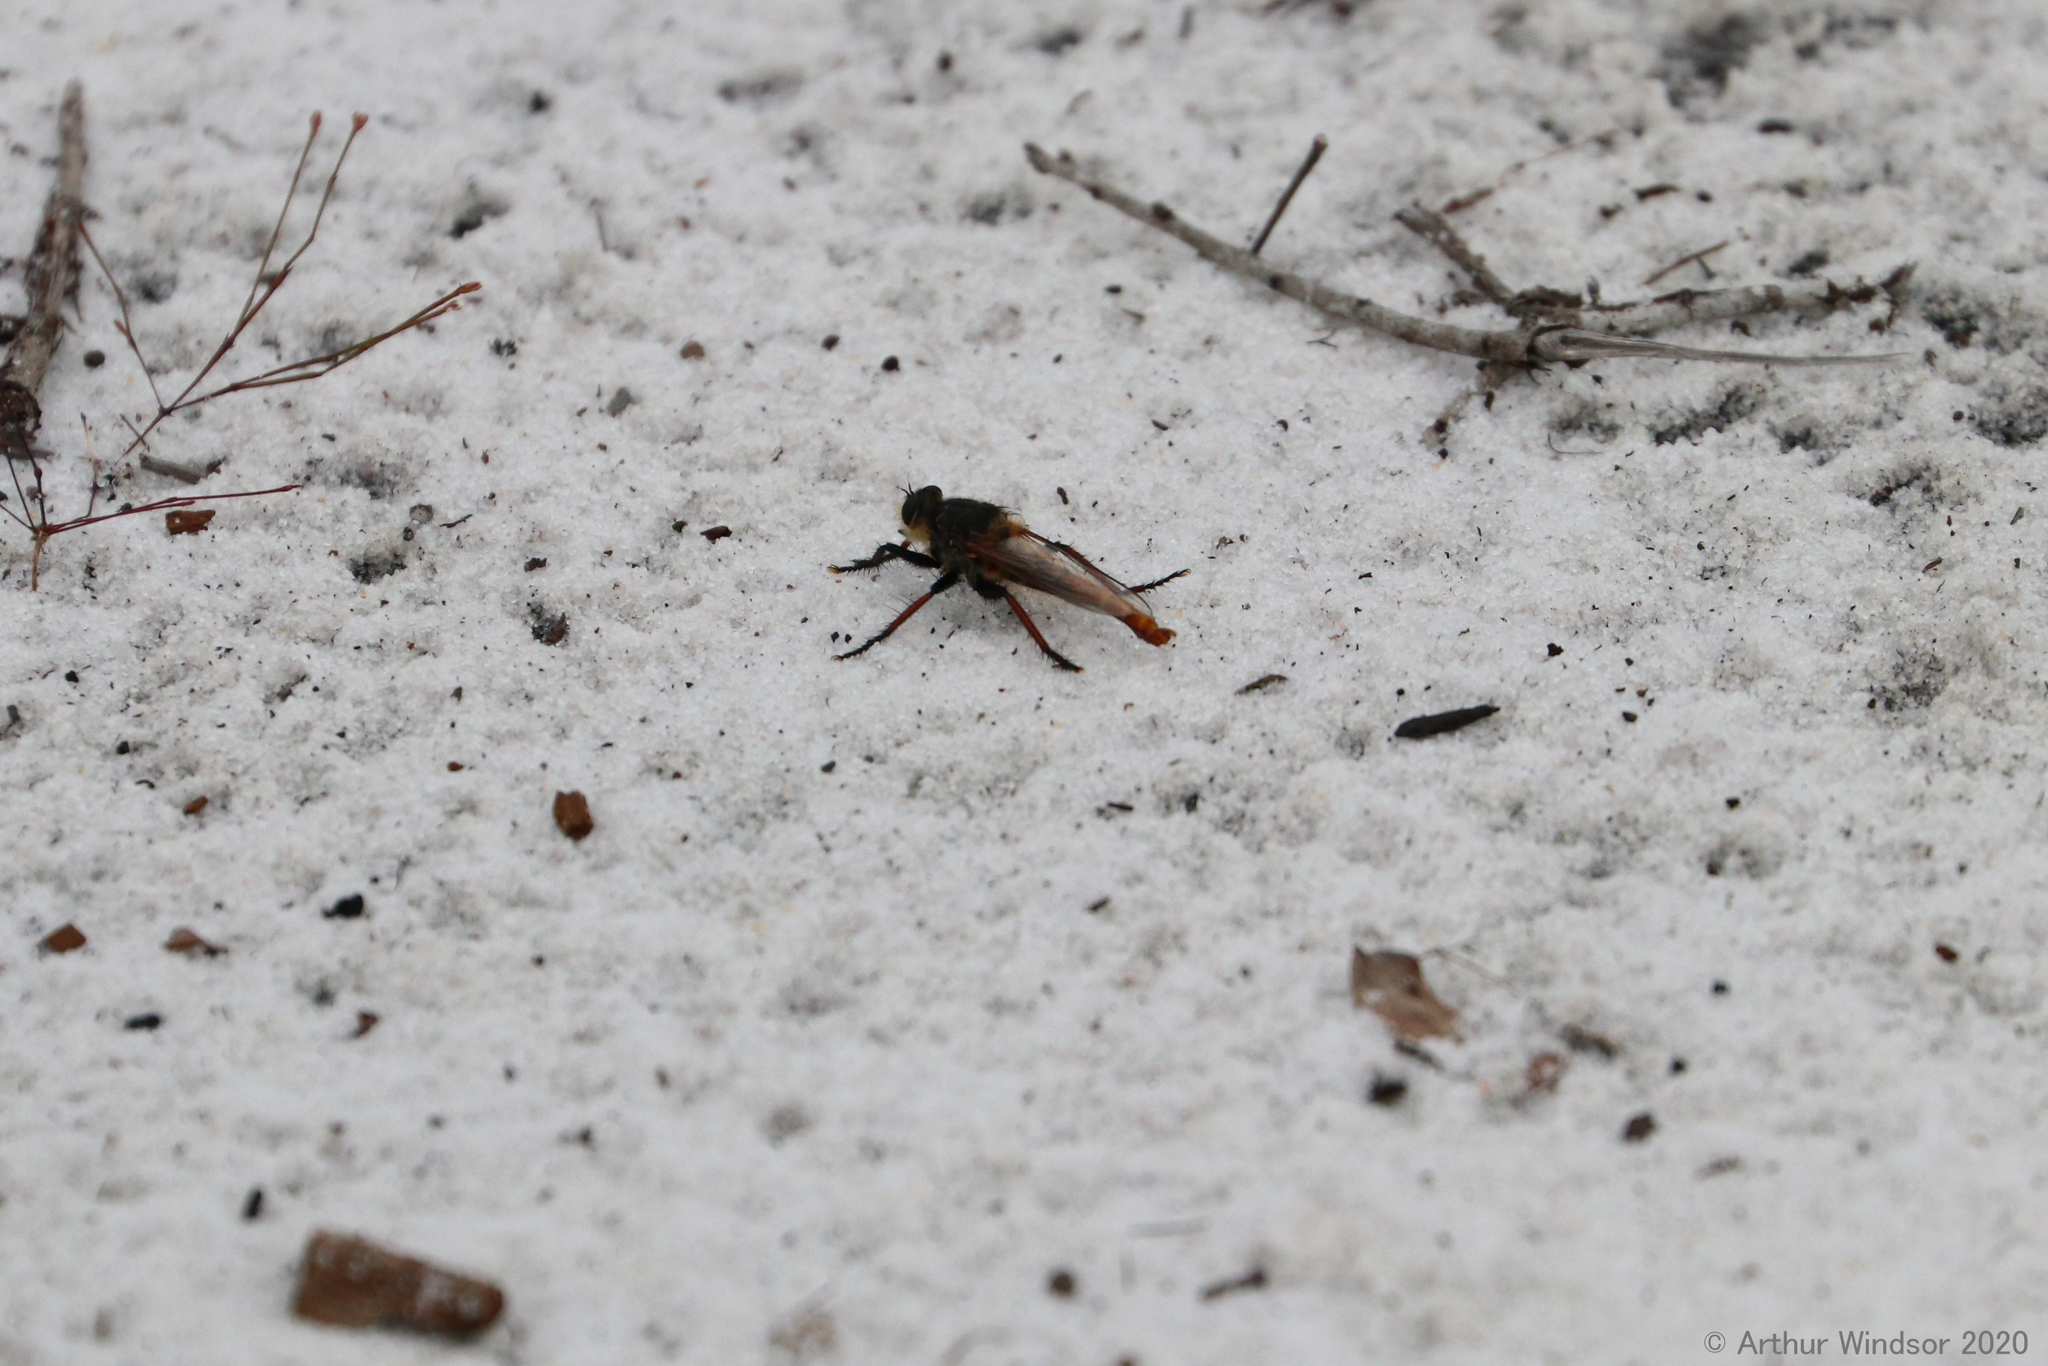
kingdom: Animalia
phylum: Arthropoda
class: Insecta
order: Diptera
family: Asilidae
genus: Proctacanthus
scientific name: Proctacanthus fulviventris
